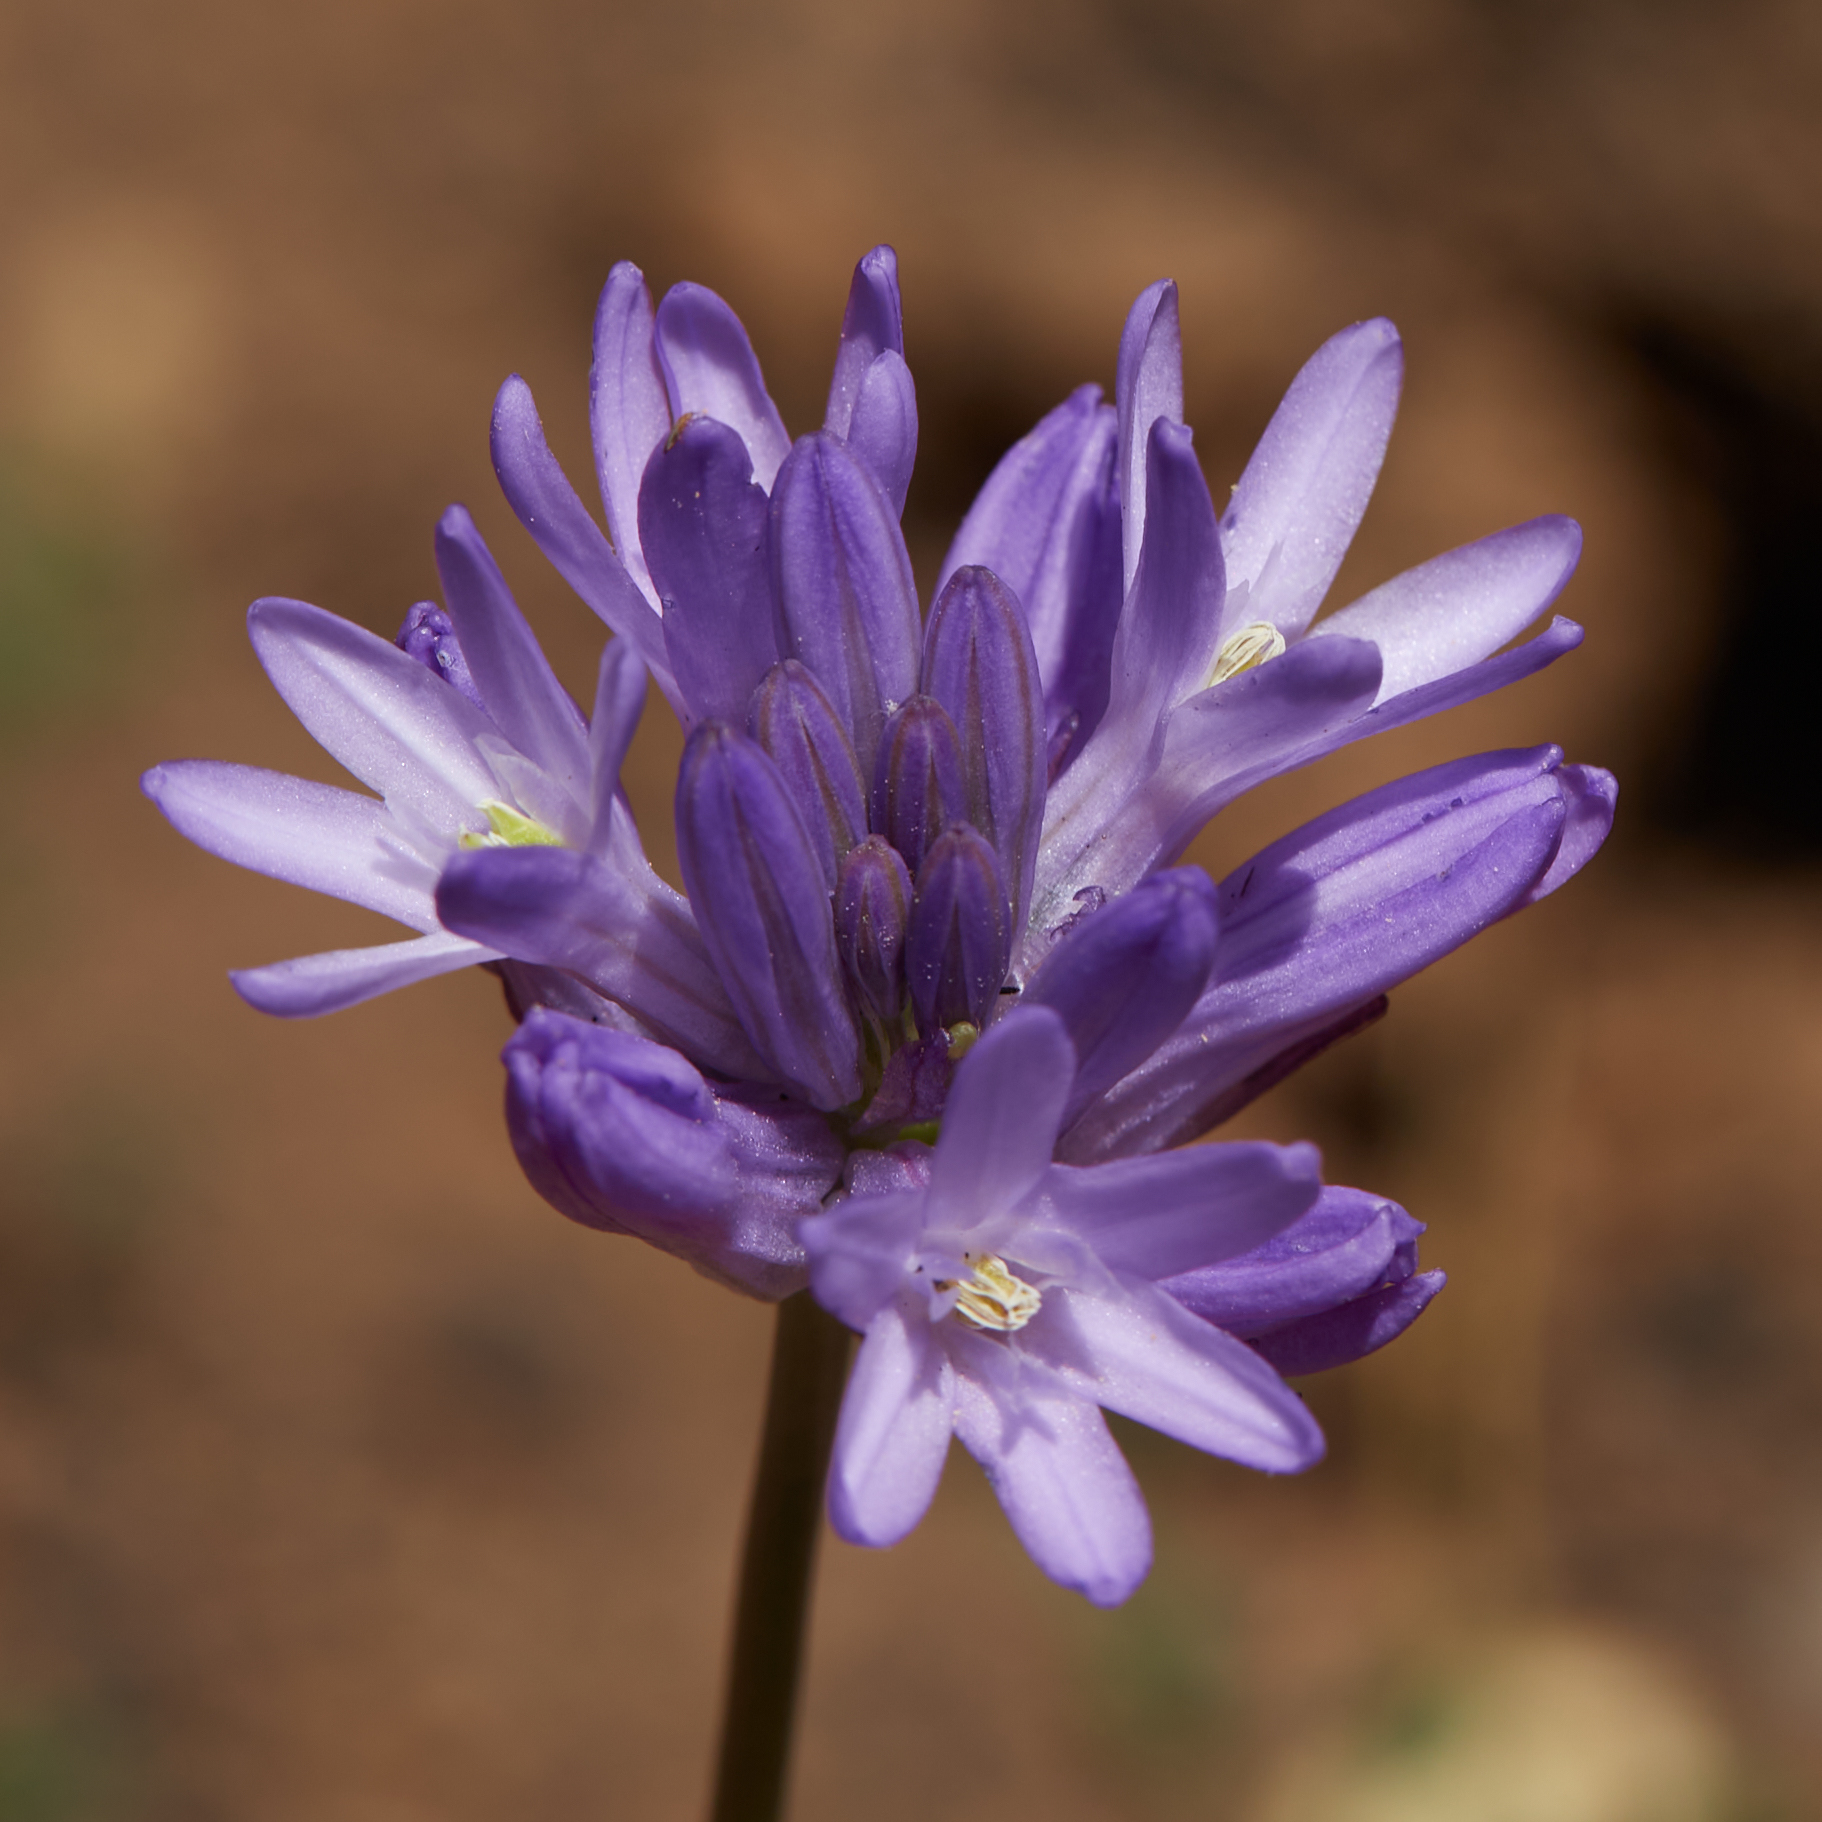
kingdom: Plantae
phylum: Tracheophyta
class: Liliopsida
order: Asparagales
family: Asparagaceae
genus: Dichelostemma
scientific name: Dichelostemma congestum
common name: Fork-tooth ookow
